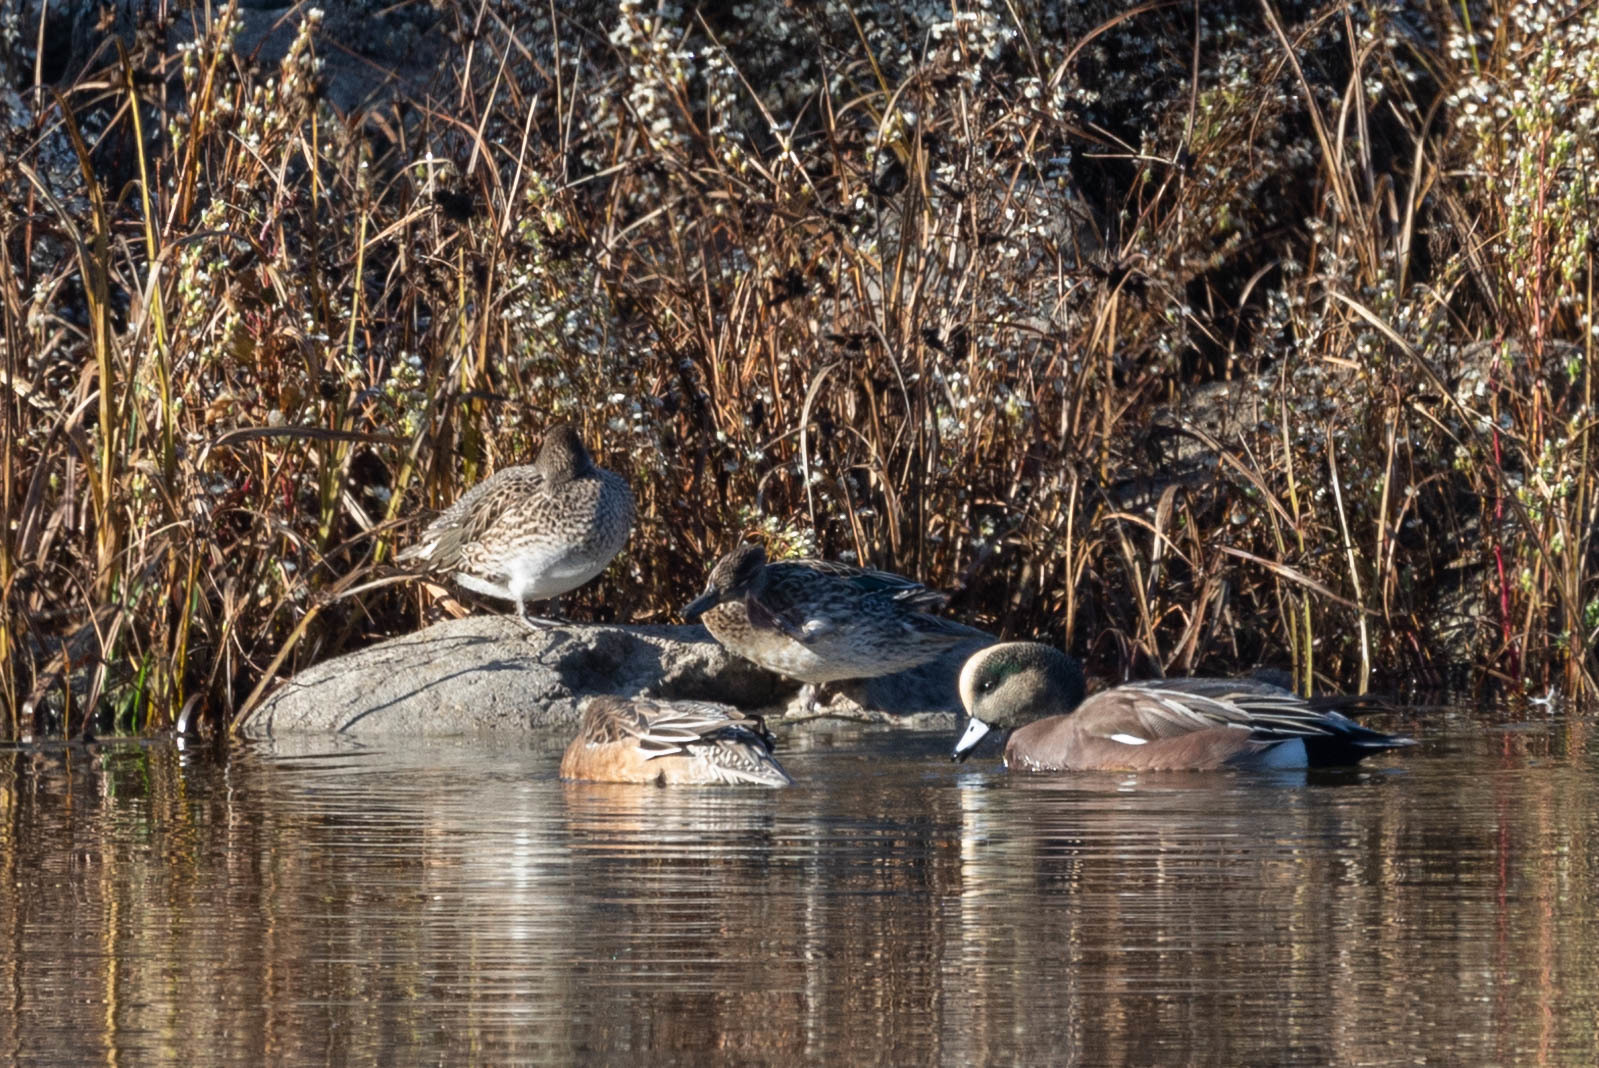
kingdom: Animalia
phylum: Chordata
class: Aves
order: Anseriformes
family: Anatidae
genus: Anas
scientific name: Anas crecca
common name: Eurasian teal
